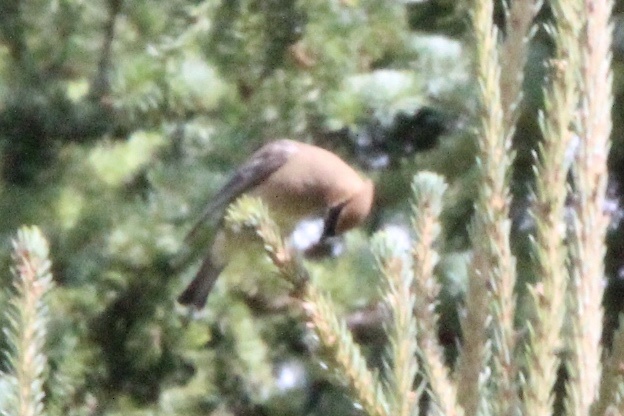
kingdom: Animalia
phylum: Chordata
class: Aves
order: Passeriformes
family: Bombycillidae
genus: Bombycilla
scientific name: Bombycilla cedrorum
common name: Cedar waxwing
